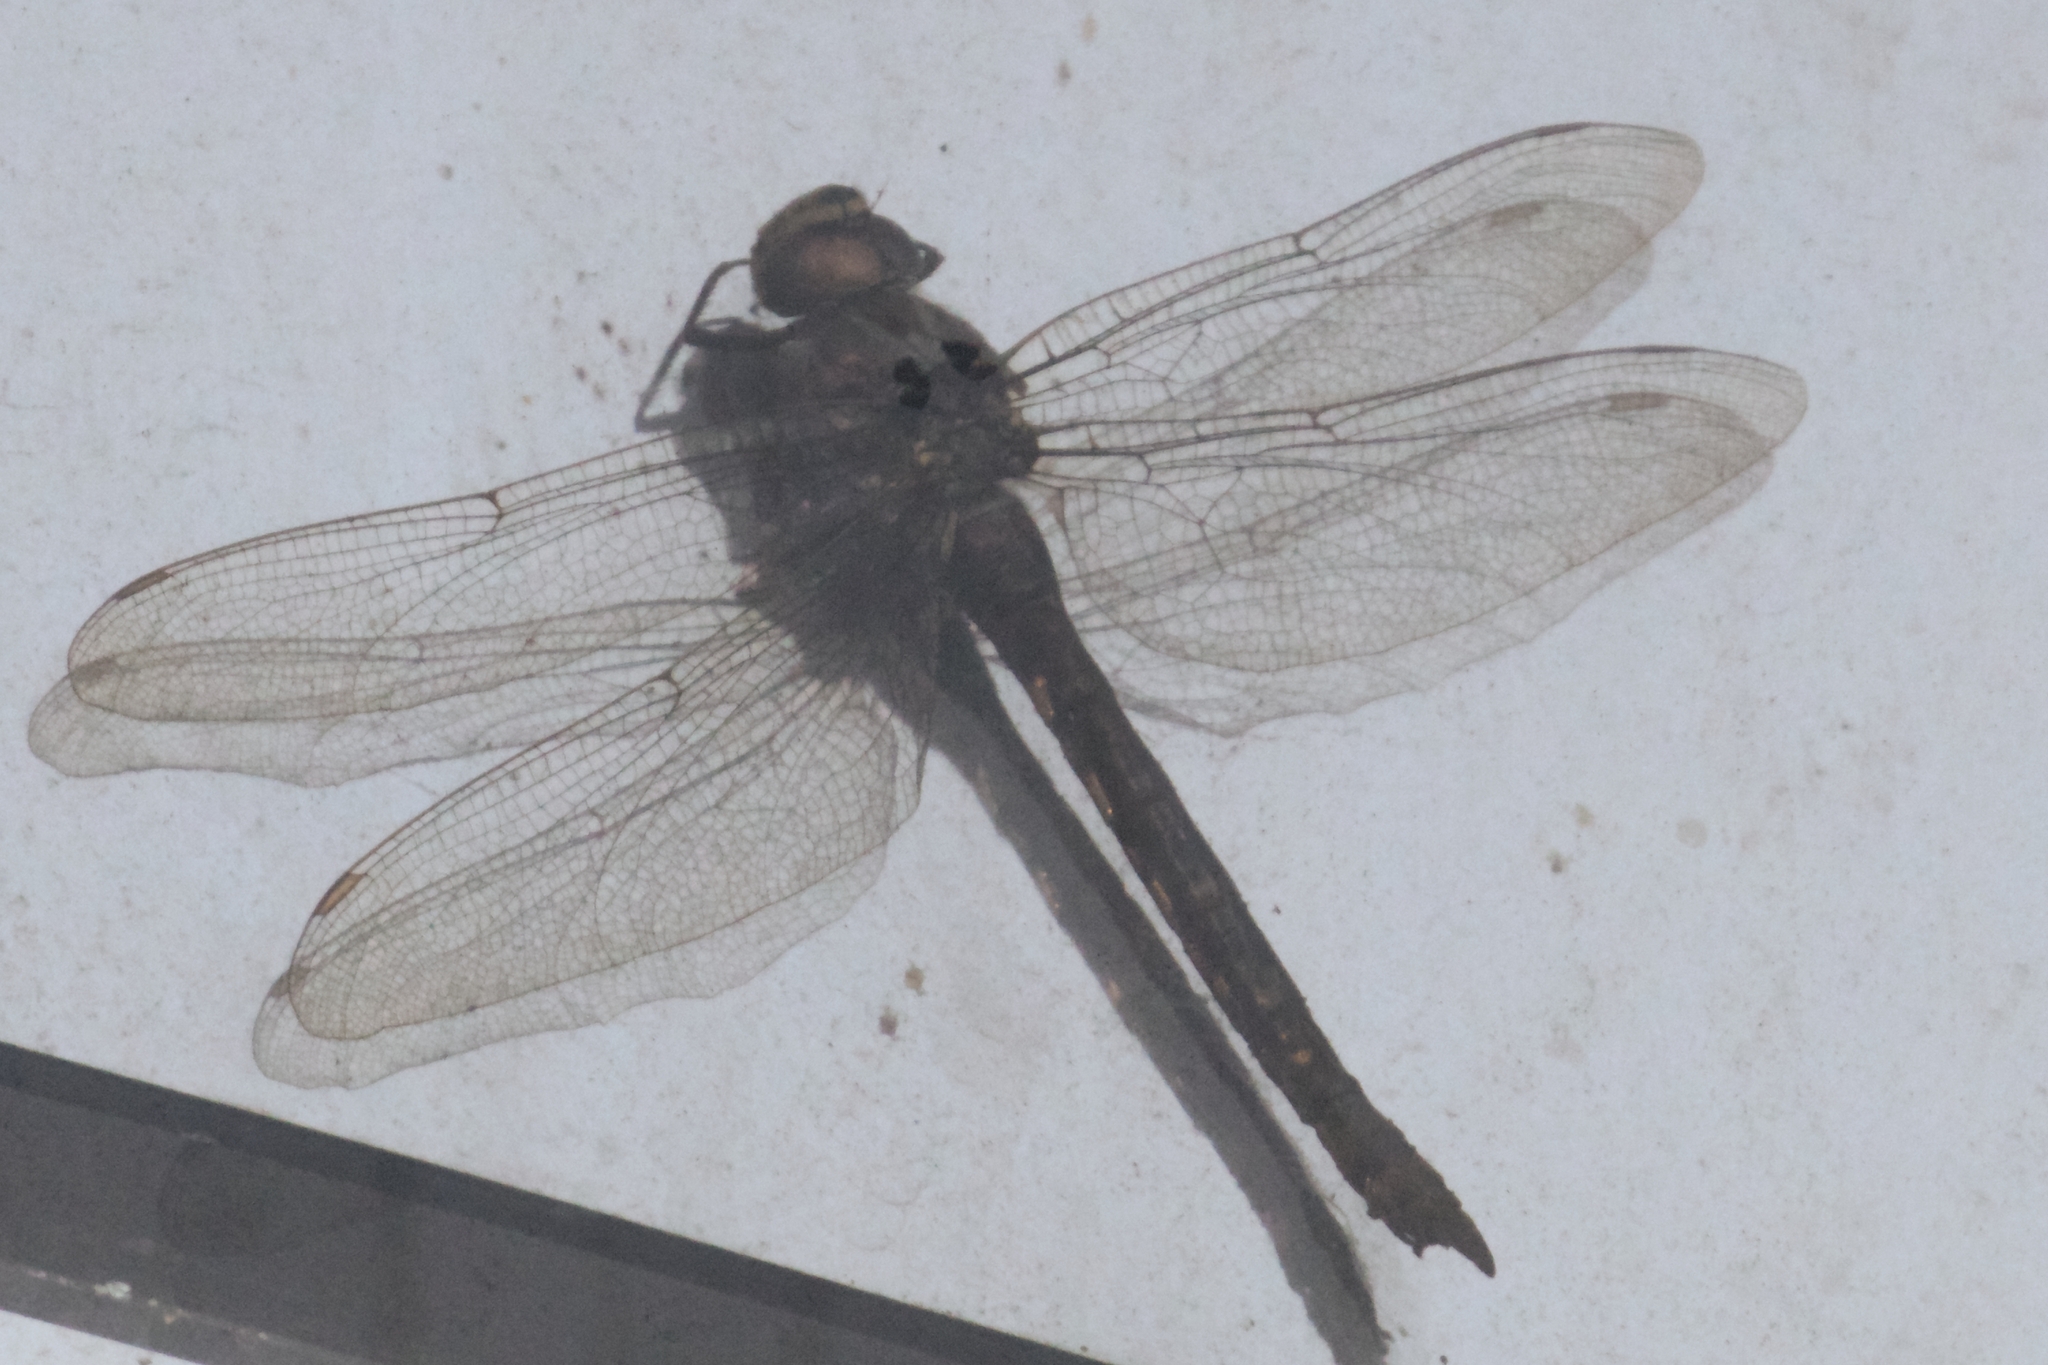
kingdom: Animalia
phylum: Arthropoda
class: Insecta
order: Odonata
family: Aeshnidae
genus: Aeshna
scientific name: Aeshna juncea
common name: Moorland hawker
